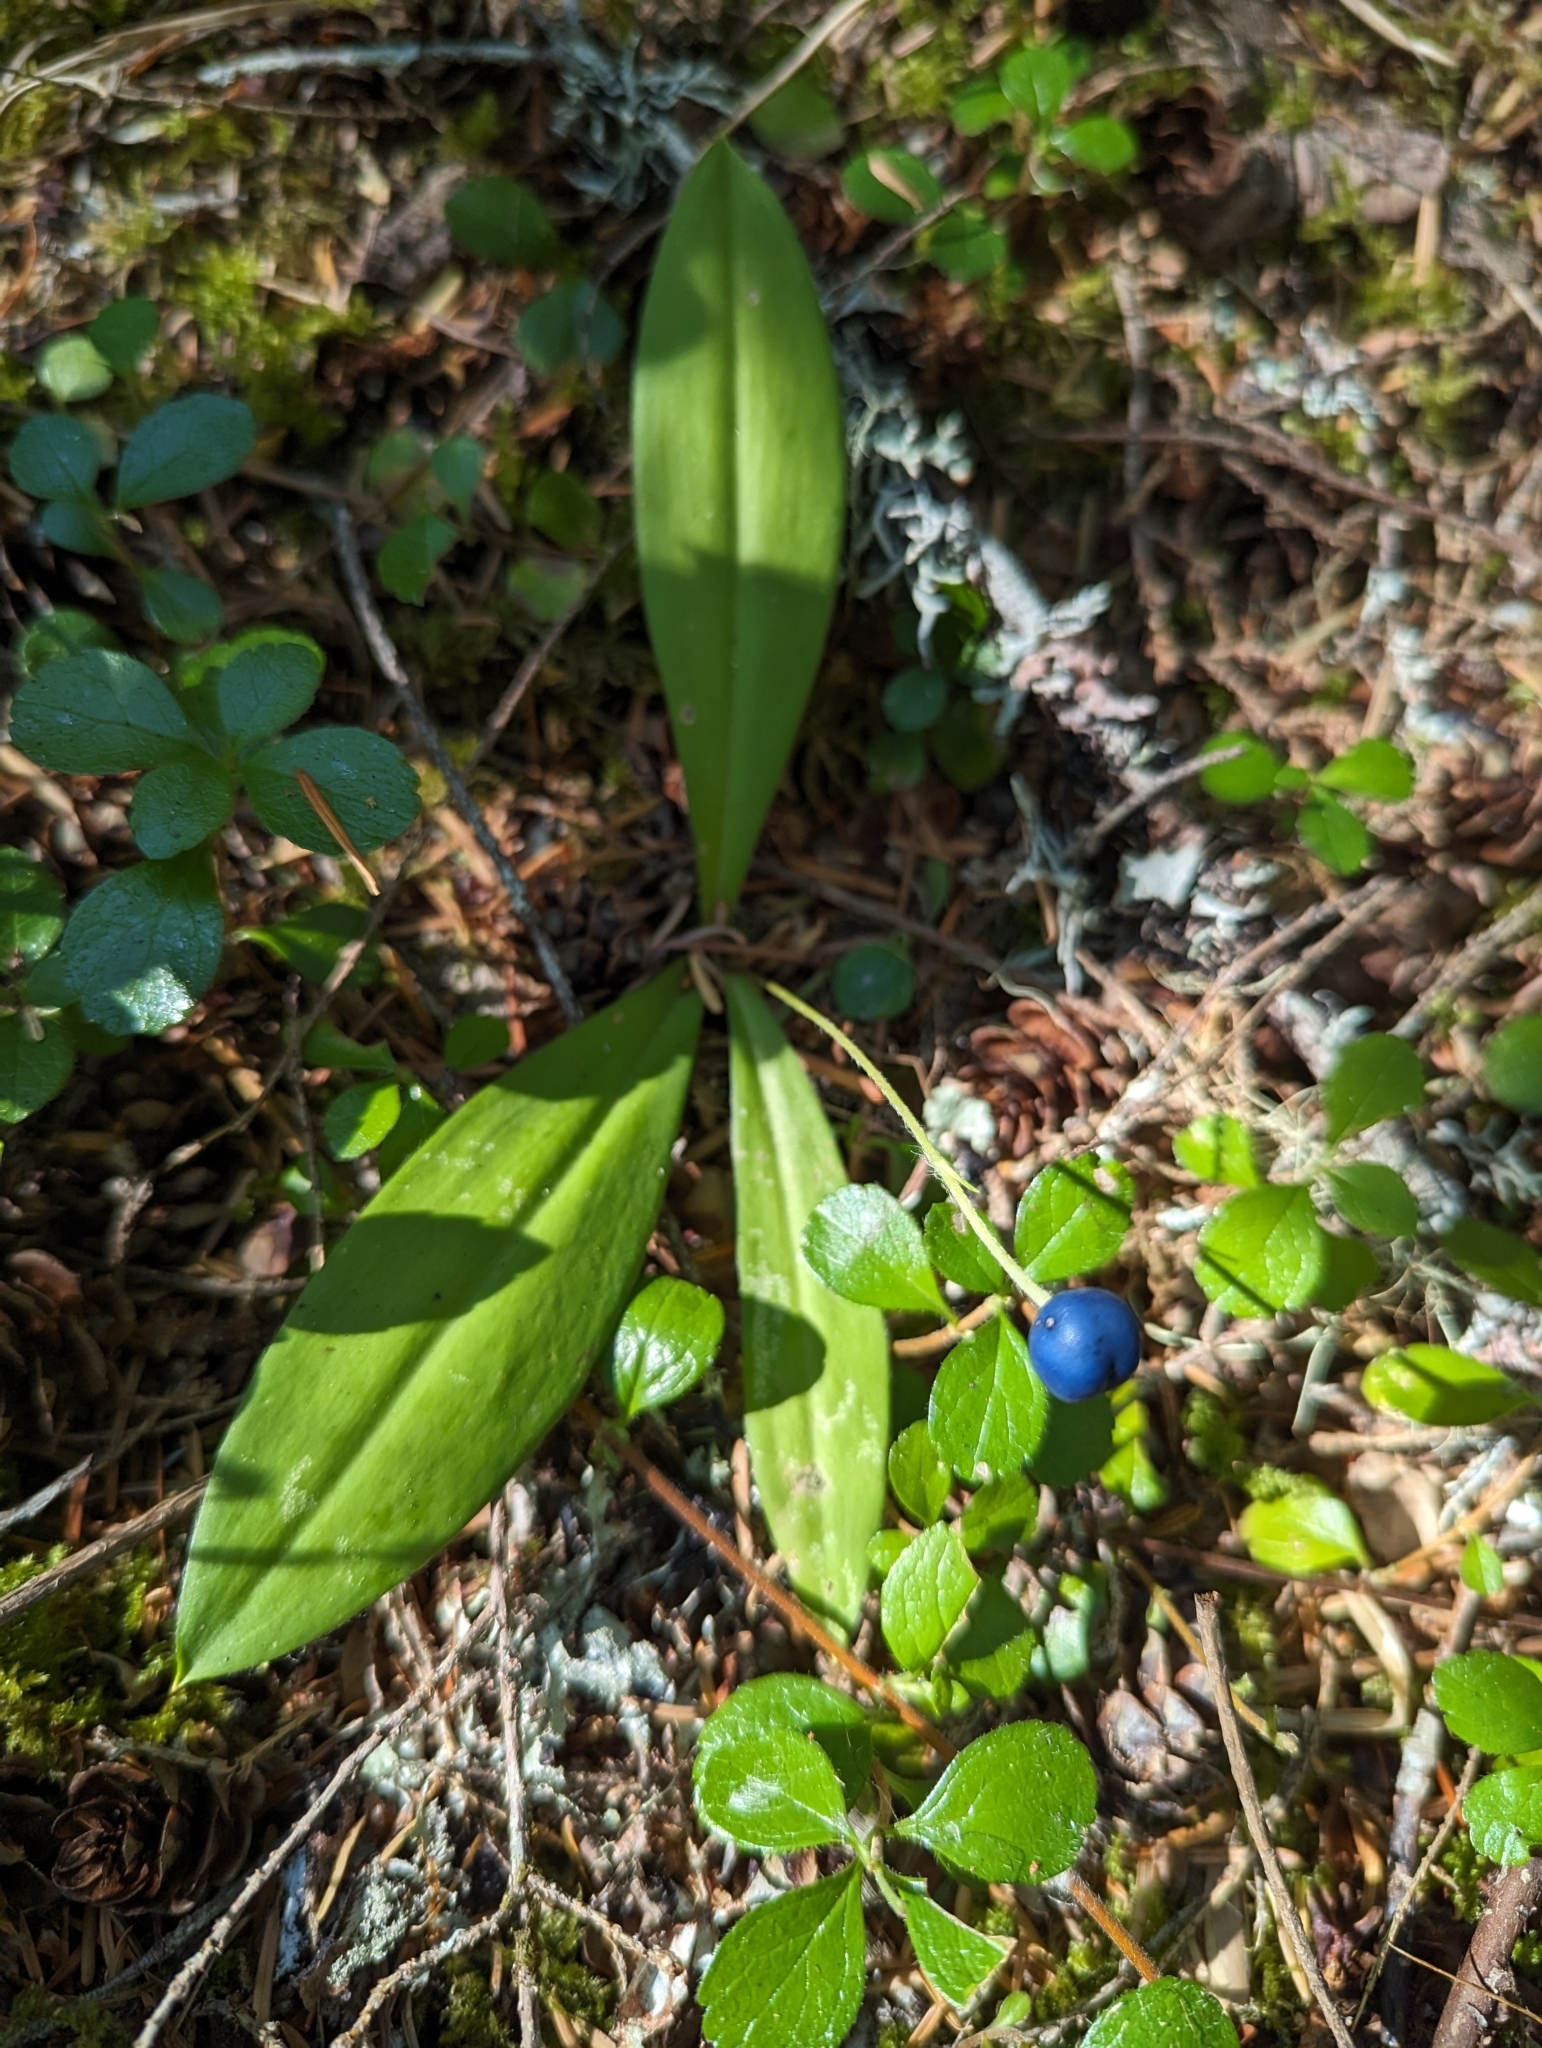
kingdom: Plantae
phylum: Tracheophyta
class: Liliopsida
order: Liliales
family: Liliaceae
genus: Clintonia
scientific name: Clintonia uniflora
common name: Queen's cup
